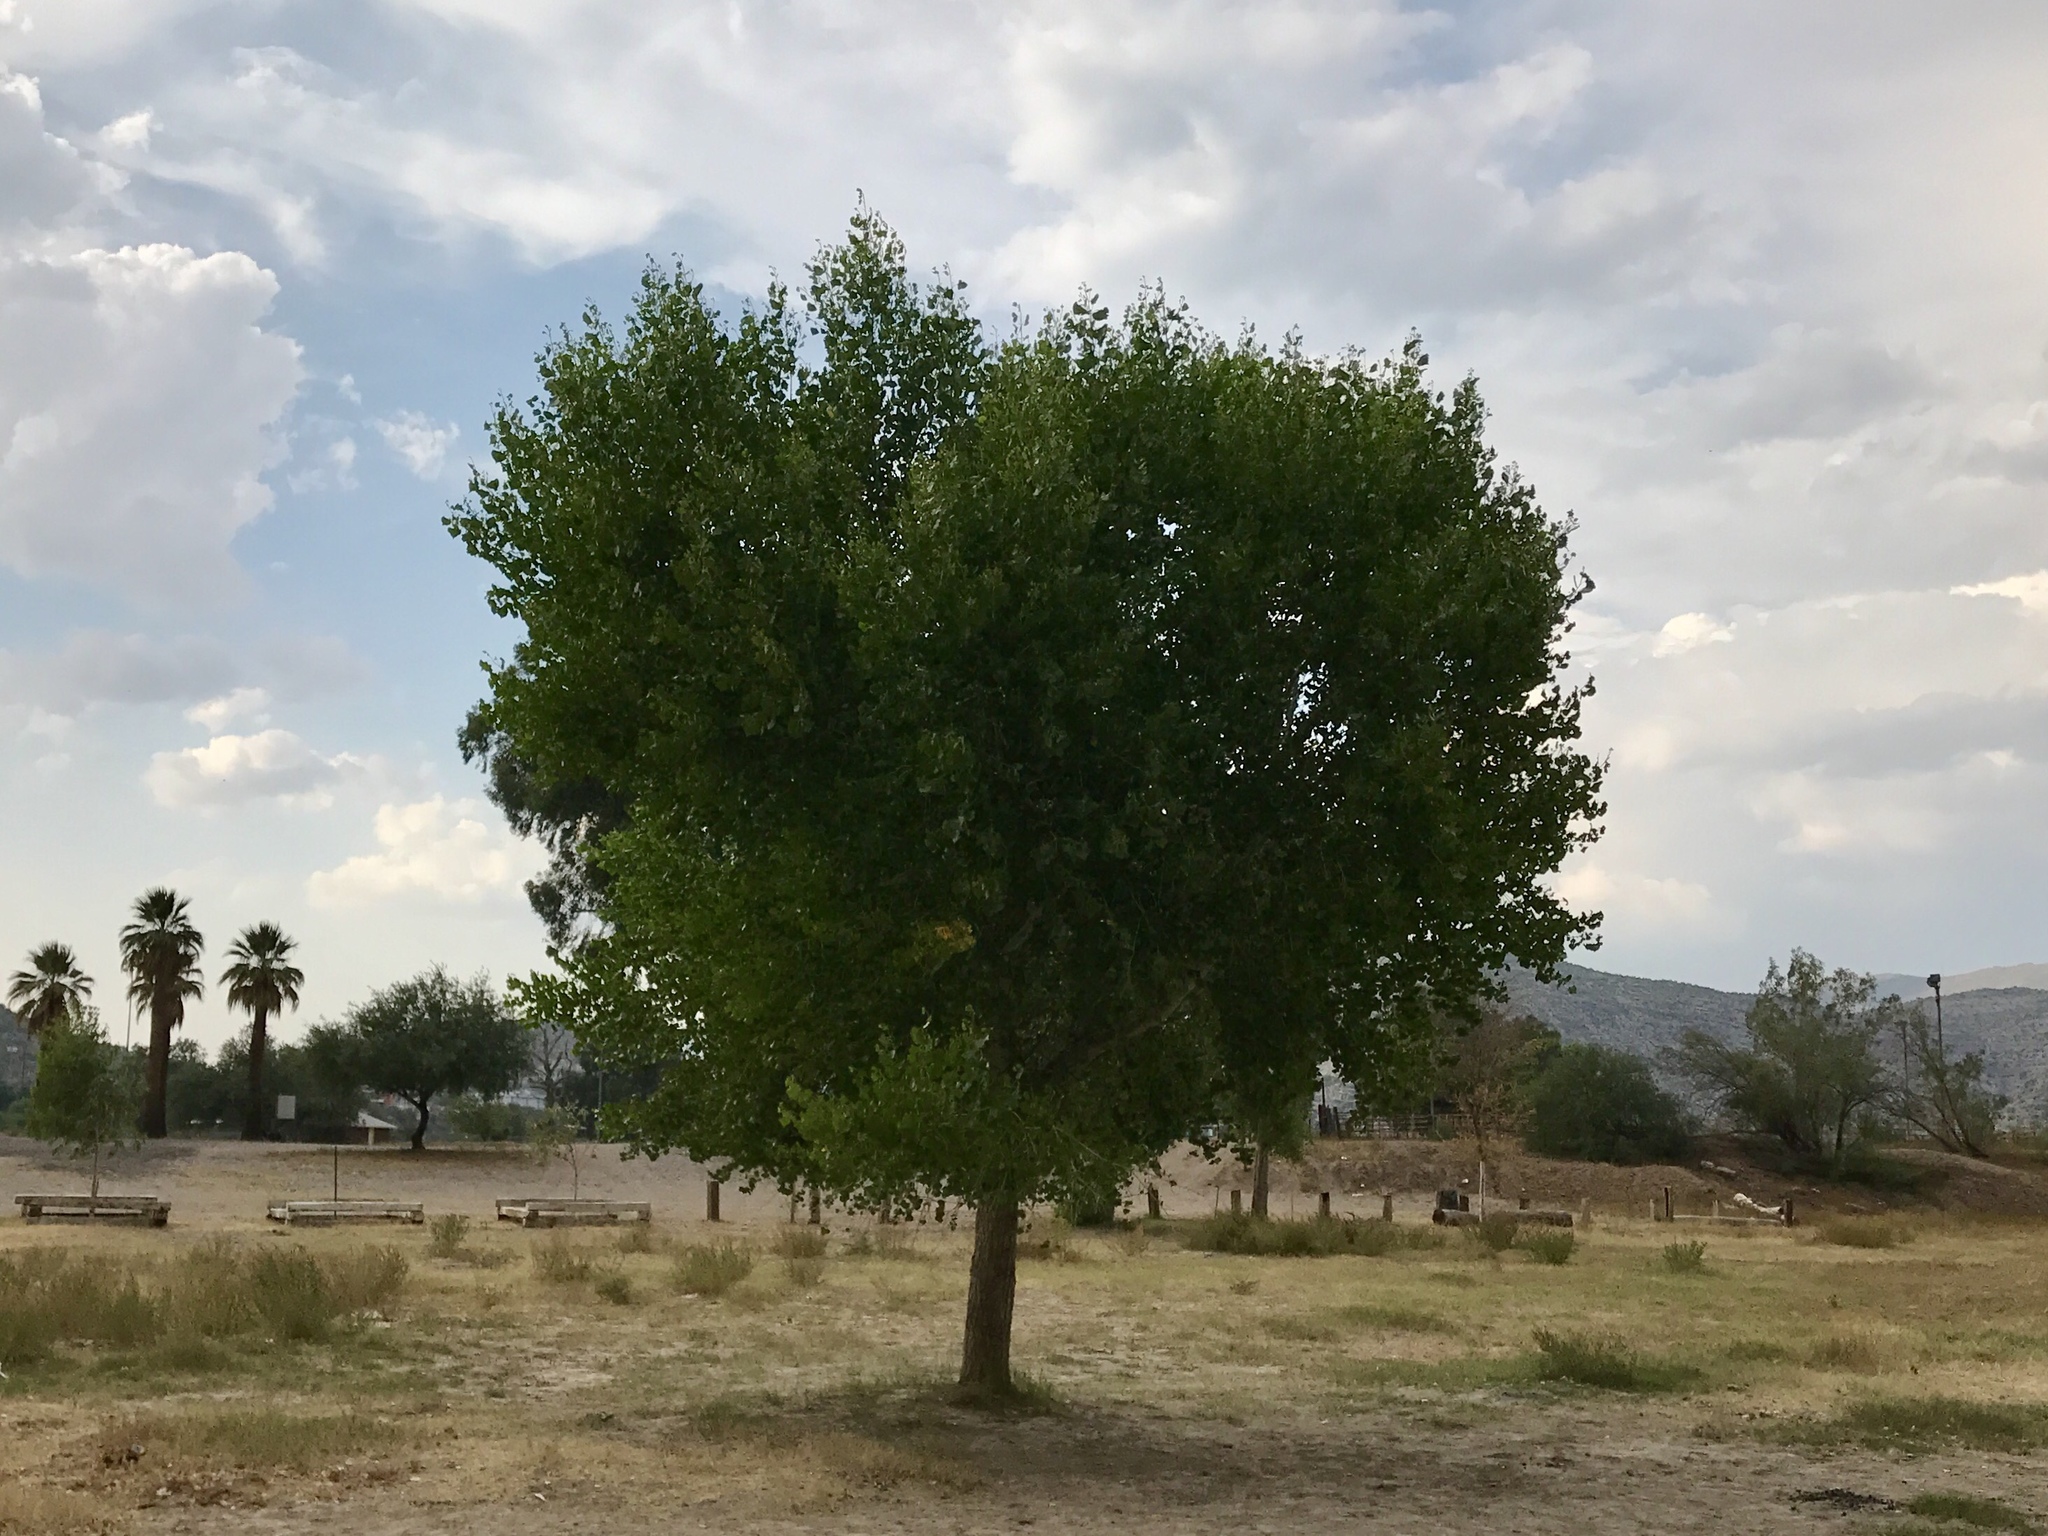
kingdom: Plantae
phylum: Tracheophyta
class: Magnoliopsida
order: Malpighiales
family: Salicaceae
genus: Populus
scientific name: Populus fremontii
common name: Fremont's cottonwood
